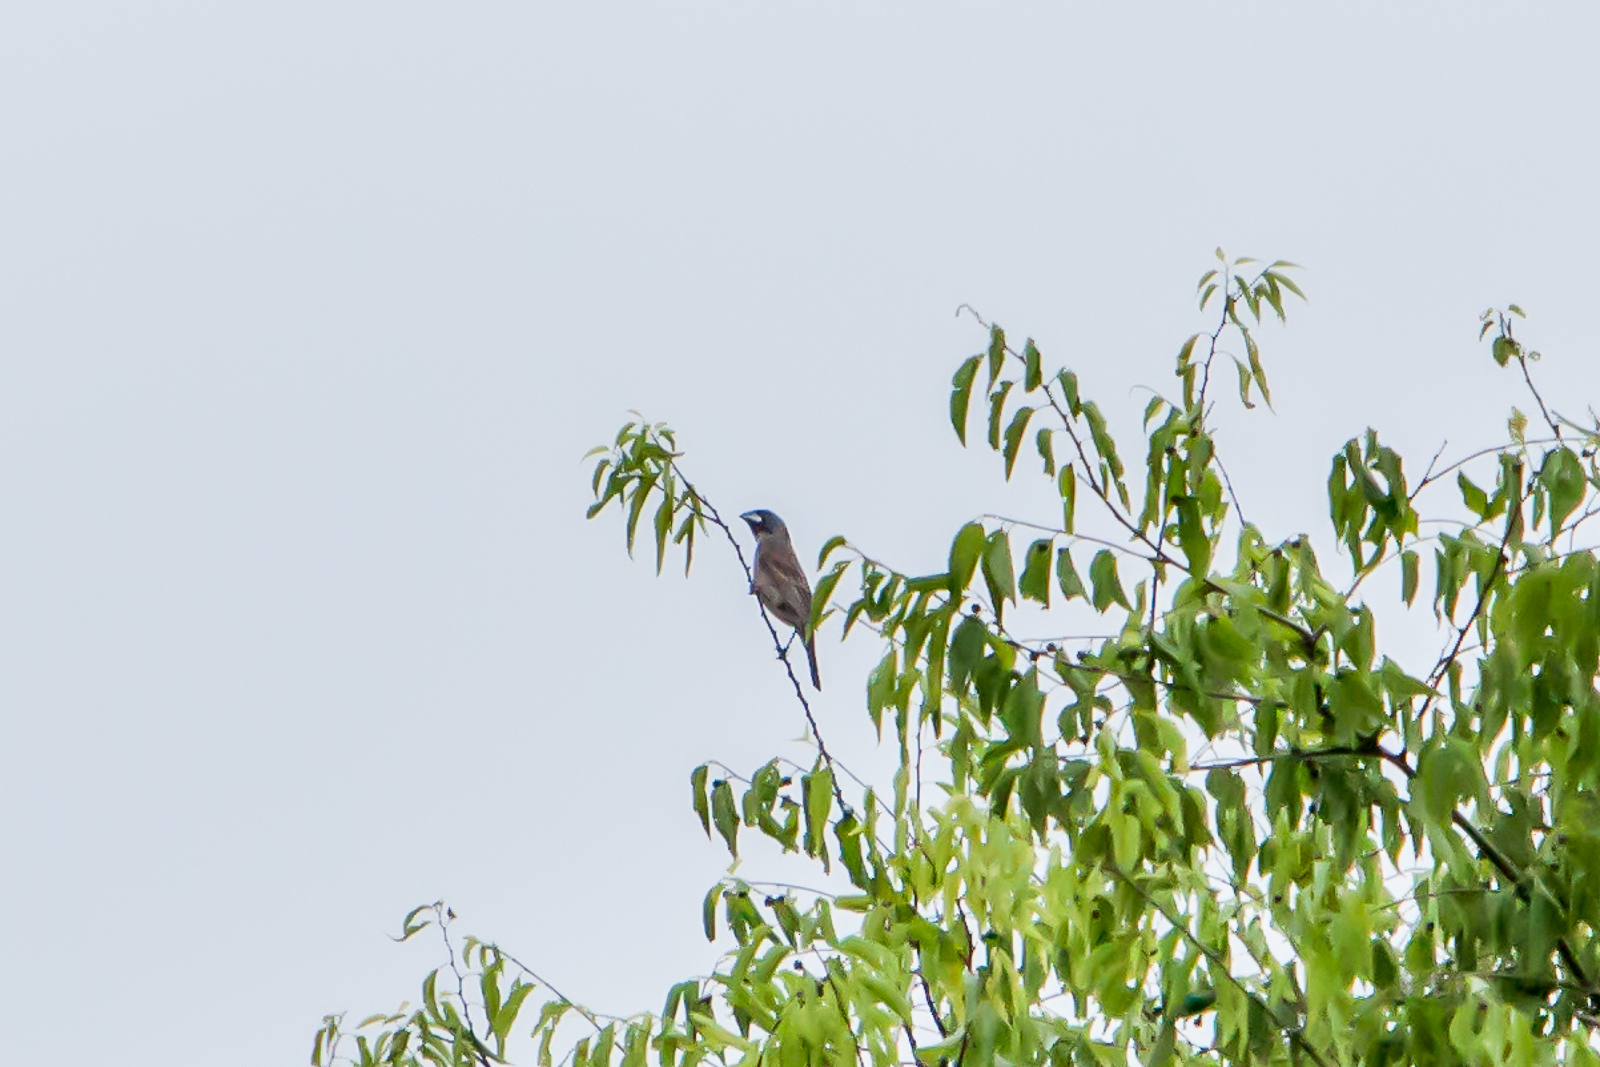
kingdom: Animalia
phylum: Chordata
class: Aves
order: Passeriformes
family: Cardinalidae
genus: Passerina
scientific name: Passerina caerulea
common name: Blue grosbeak
